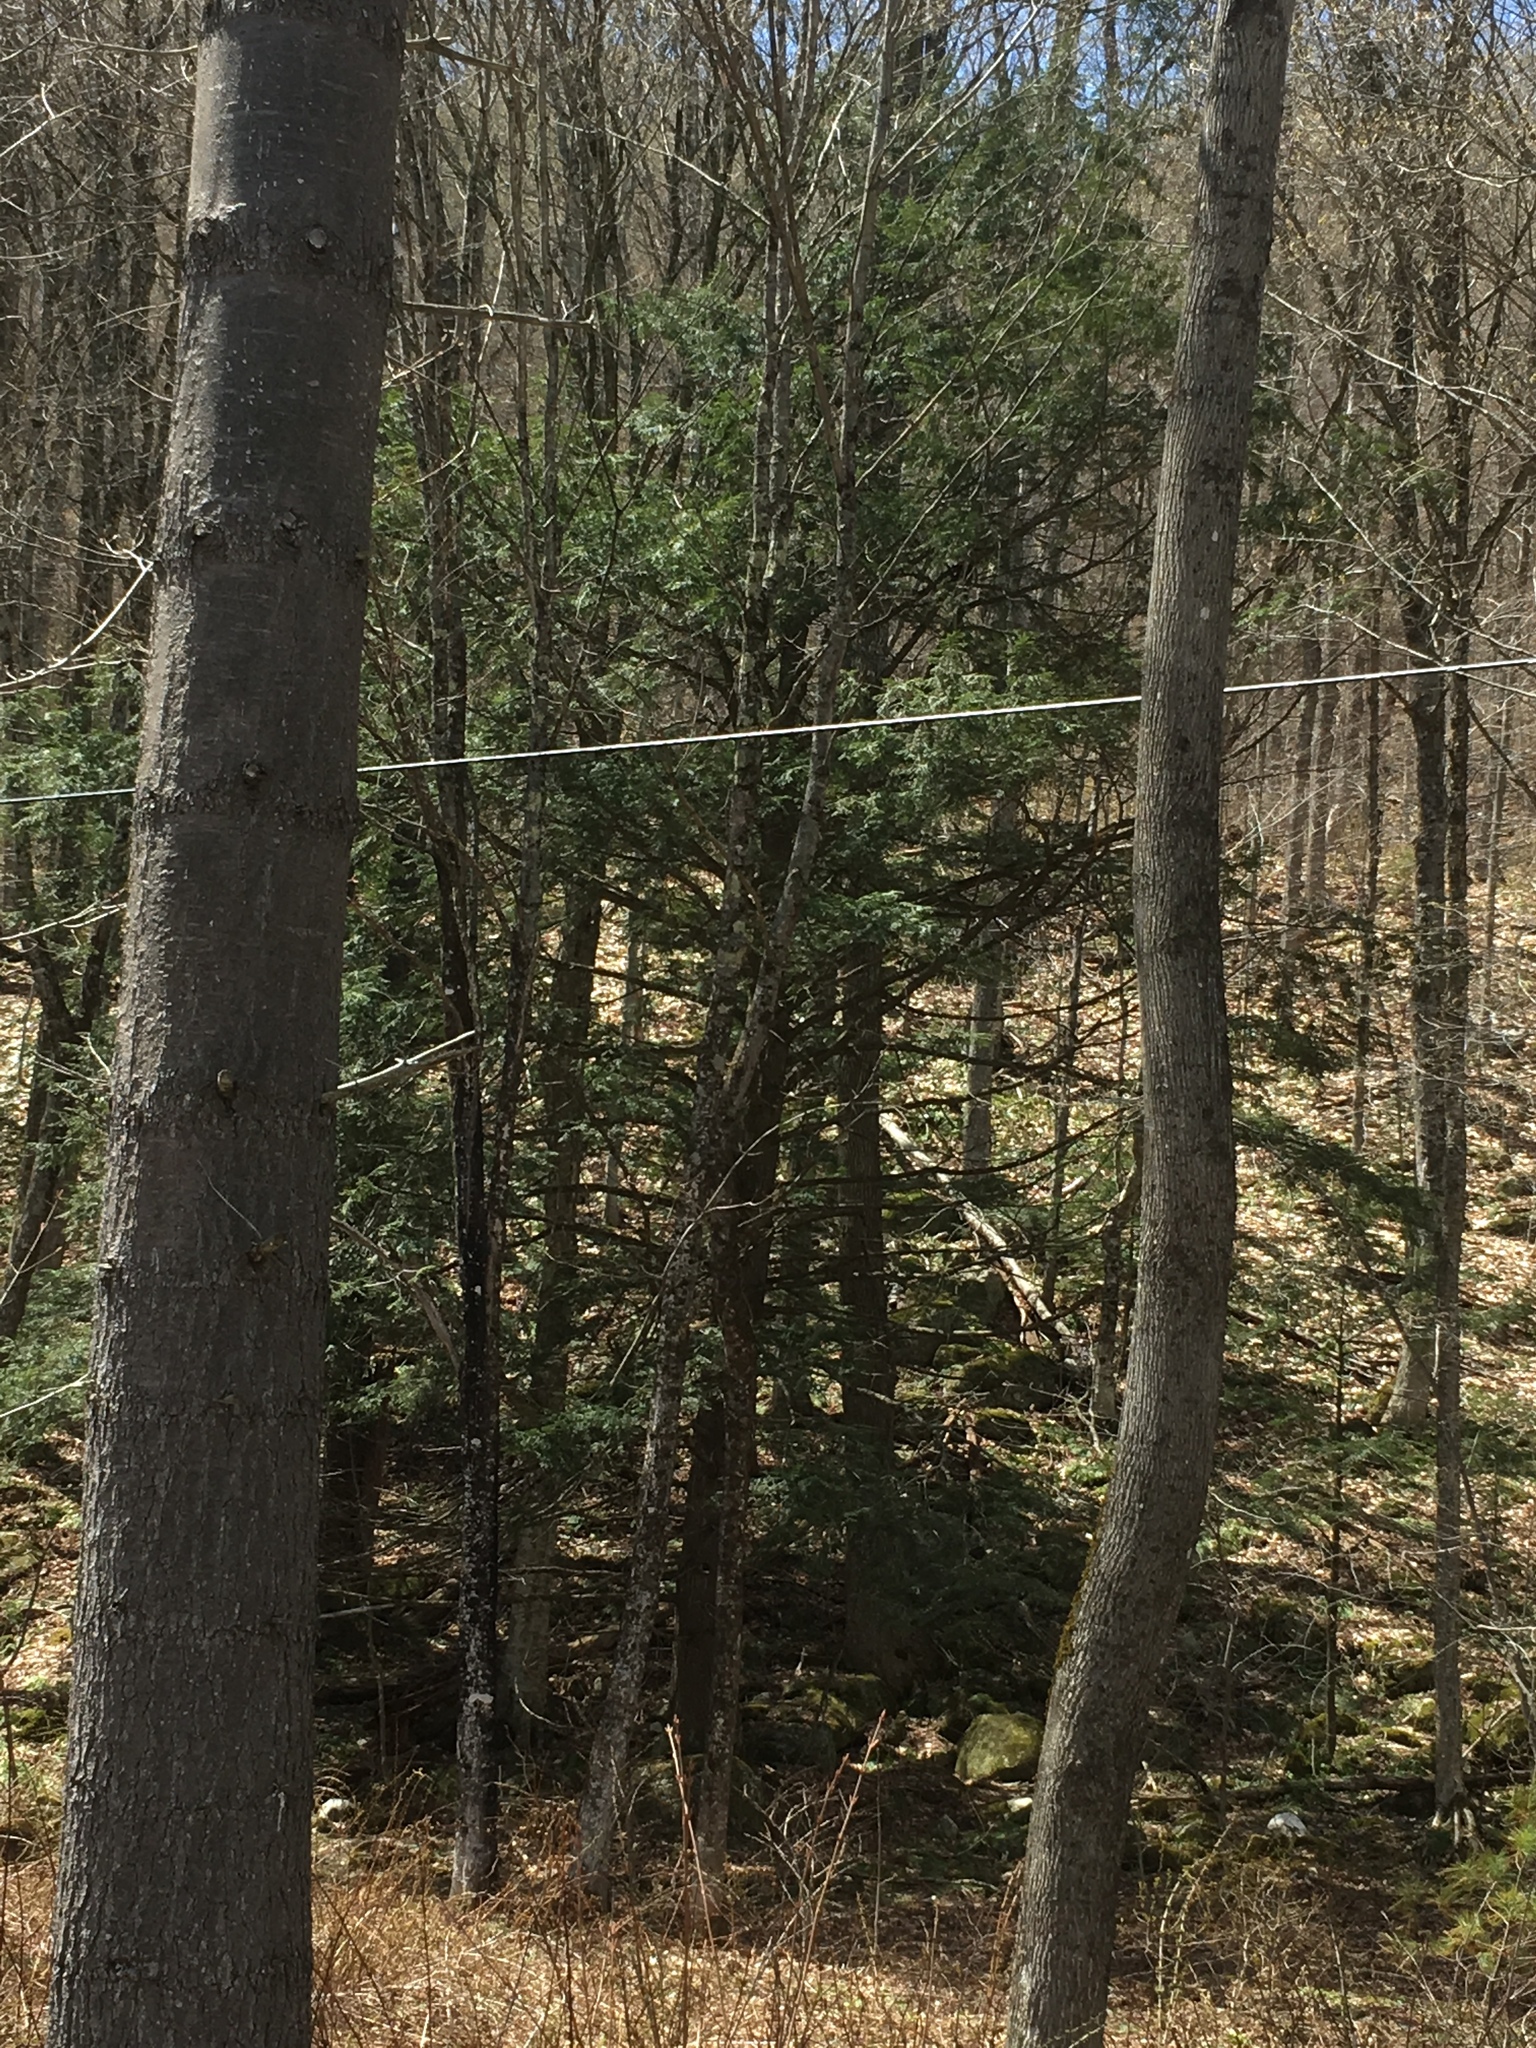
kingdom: Plantae
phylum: Tracheophyta
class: Pinopsida
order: Pinales
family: Pinaceae
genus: Tsuga
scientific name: Tsuga canadensis
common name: Eastern hemlock
